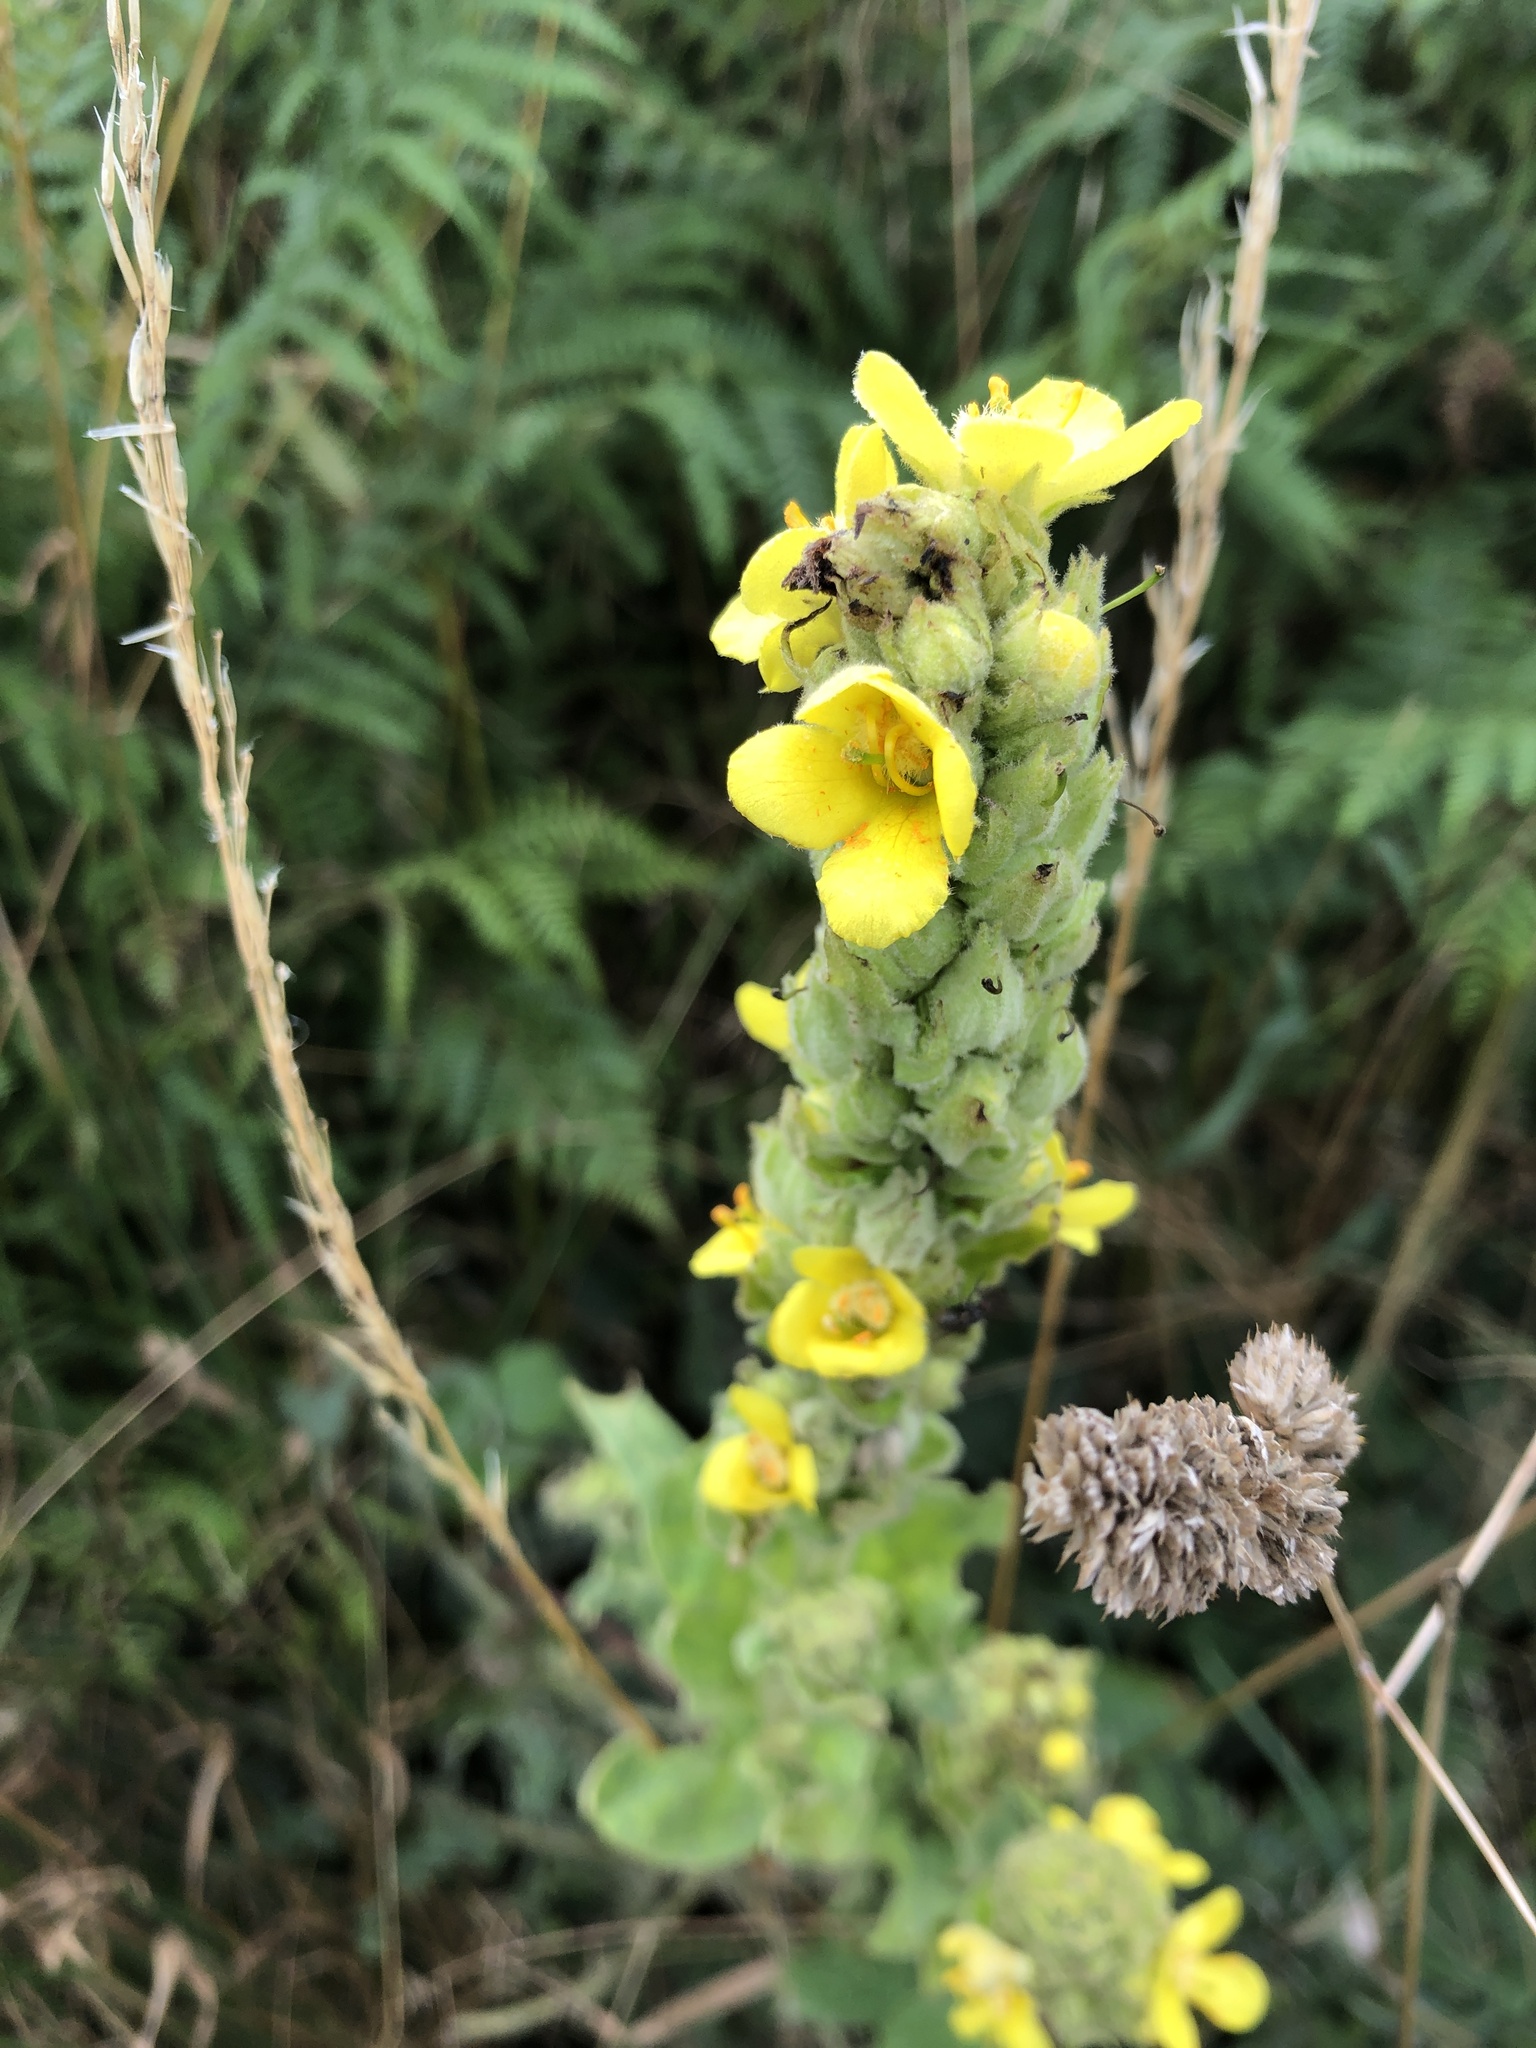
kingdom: Plantae
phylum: Tracheophyta
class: Magnoliopsida
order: Lamiales
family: Scrophulariaceae
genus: Verbascum
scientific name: Verbascum thapsus
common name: Common mullein
